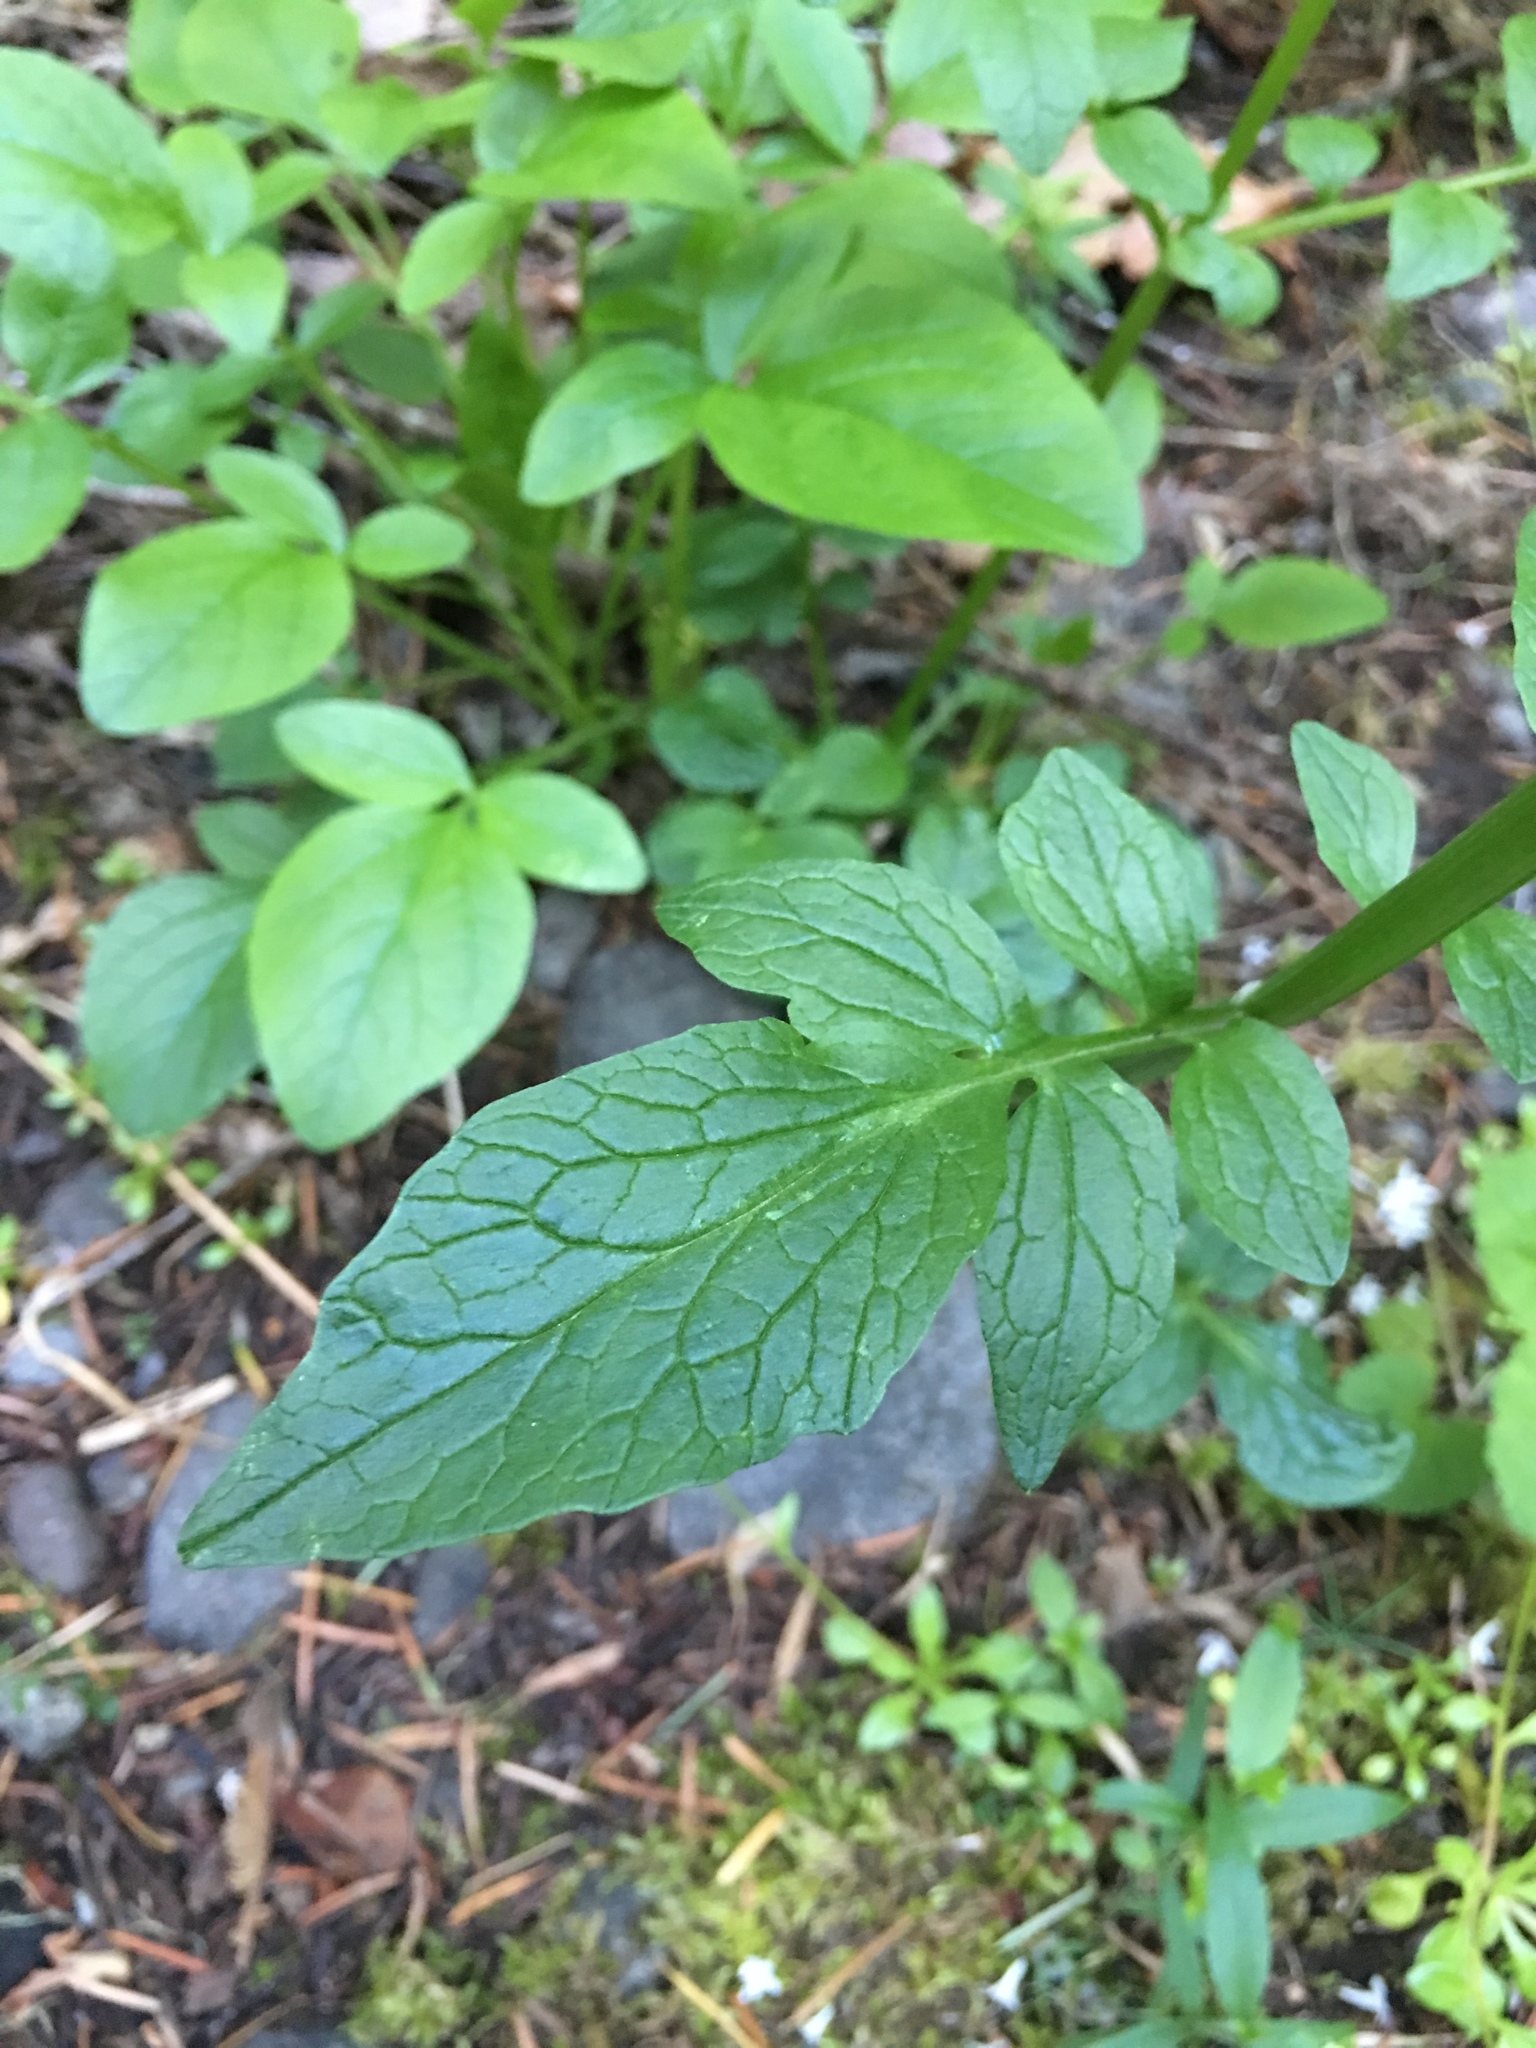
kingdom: Plantae
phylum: Tracheophyta
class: Magnoliopsida
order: Dipsacales
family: Caprifoliaceae
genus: Valeriana
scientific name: Valeriana sitchensis
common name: Pacific valerian
